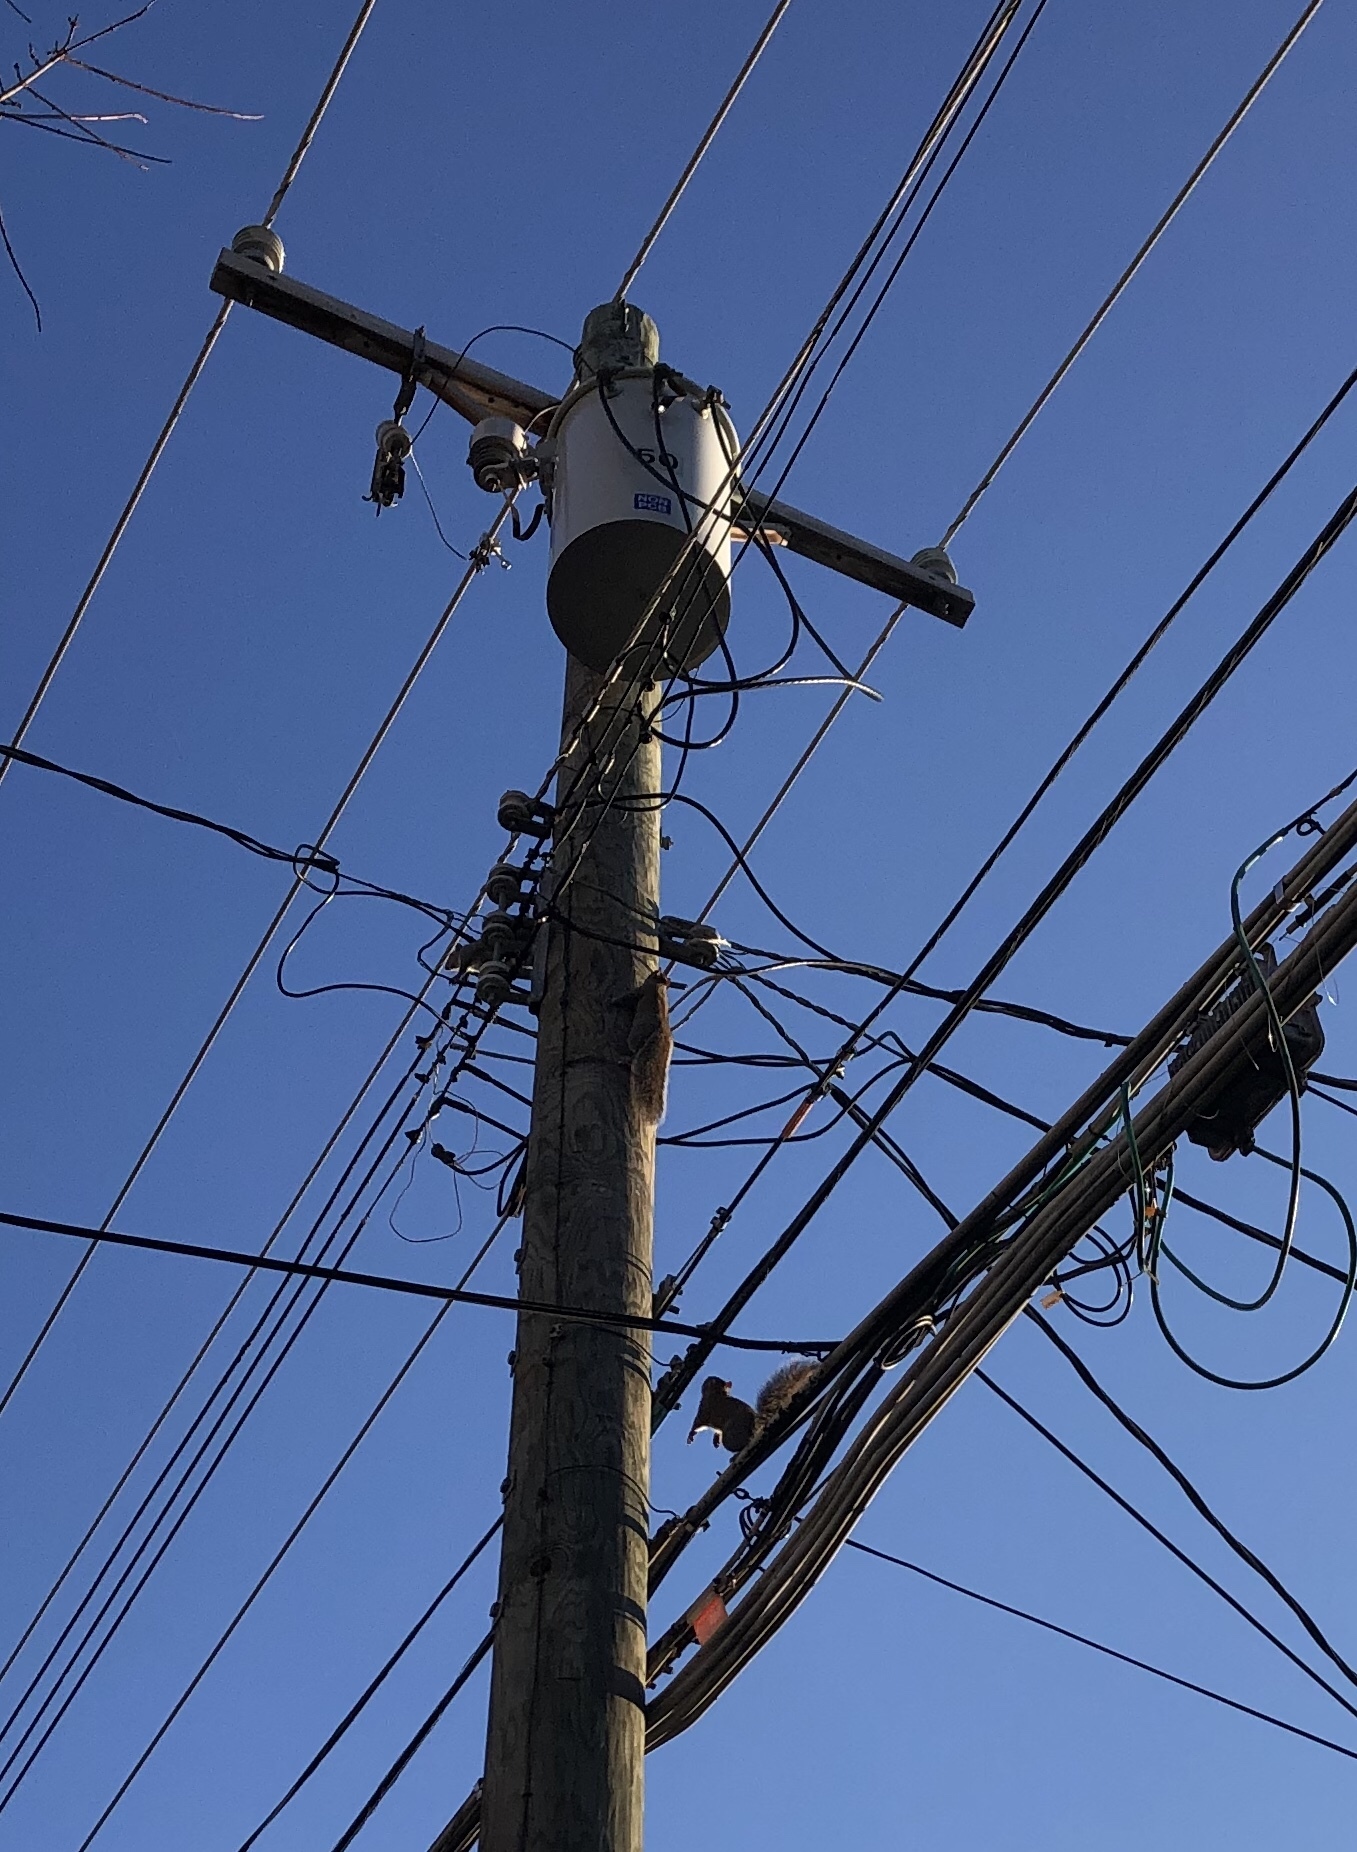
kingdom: Animalia
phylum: Chordata
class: Mammalia
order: Rodentia
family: Sciuridae
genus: Sciurus
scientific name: Sciurus carolinensis
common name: Eastern gray squirrel
